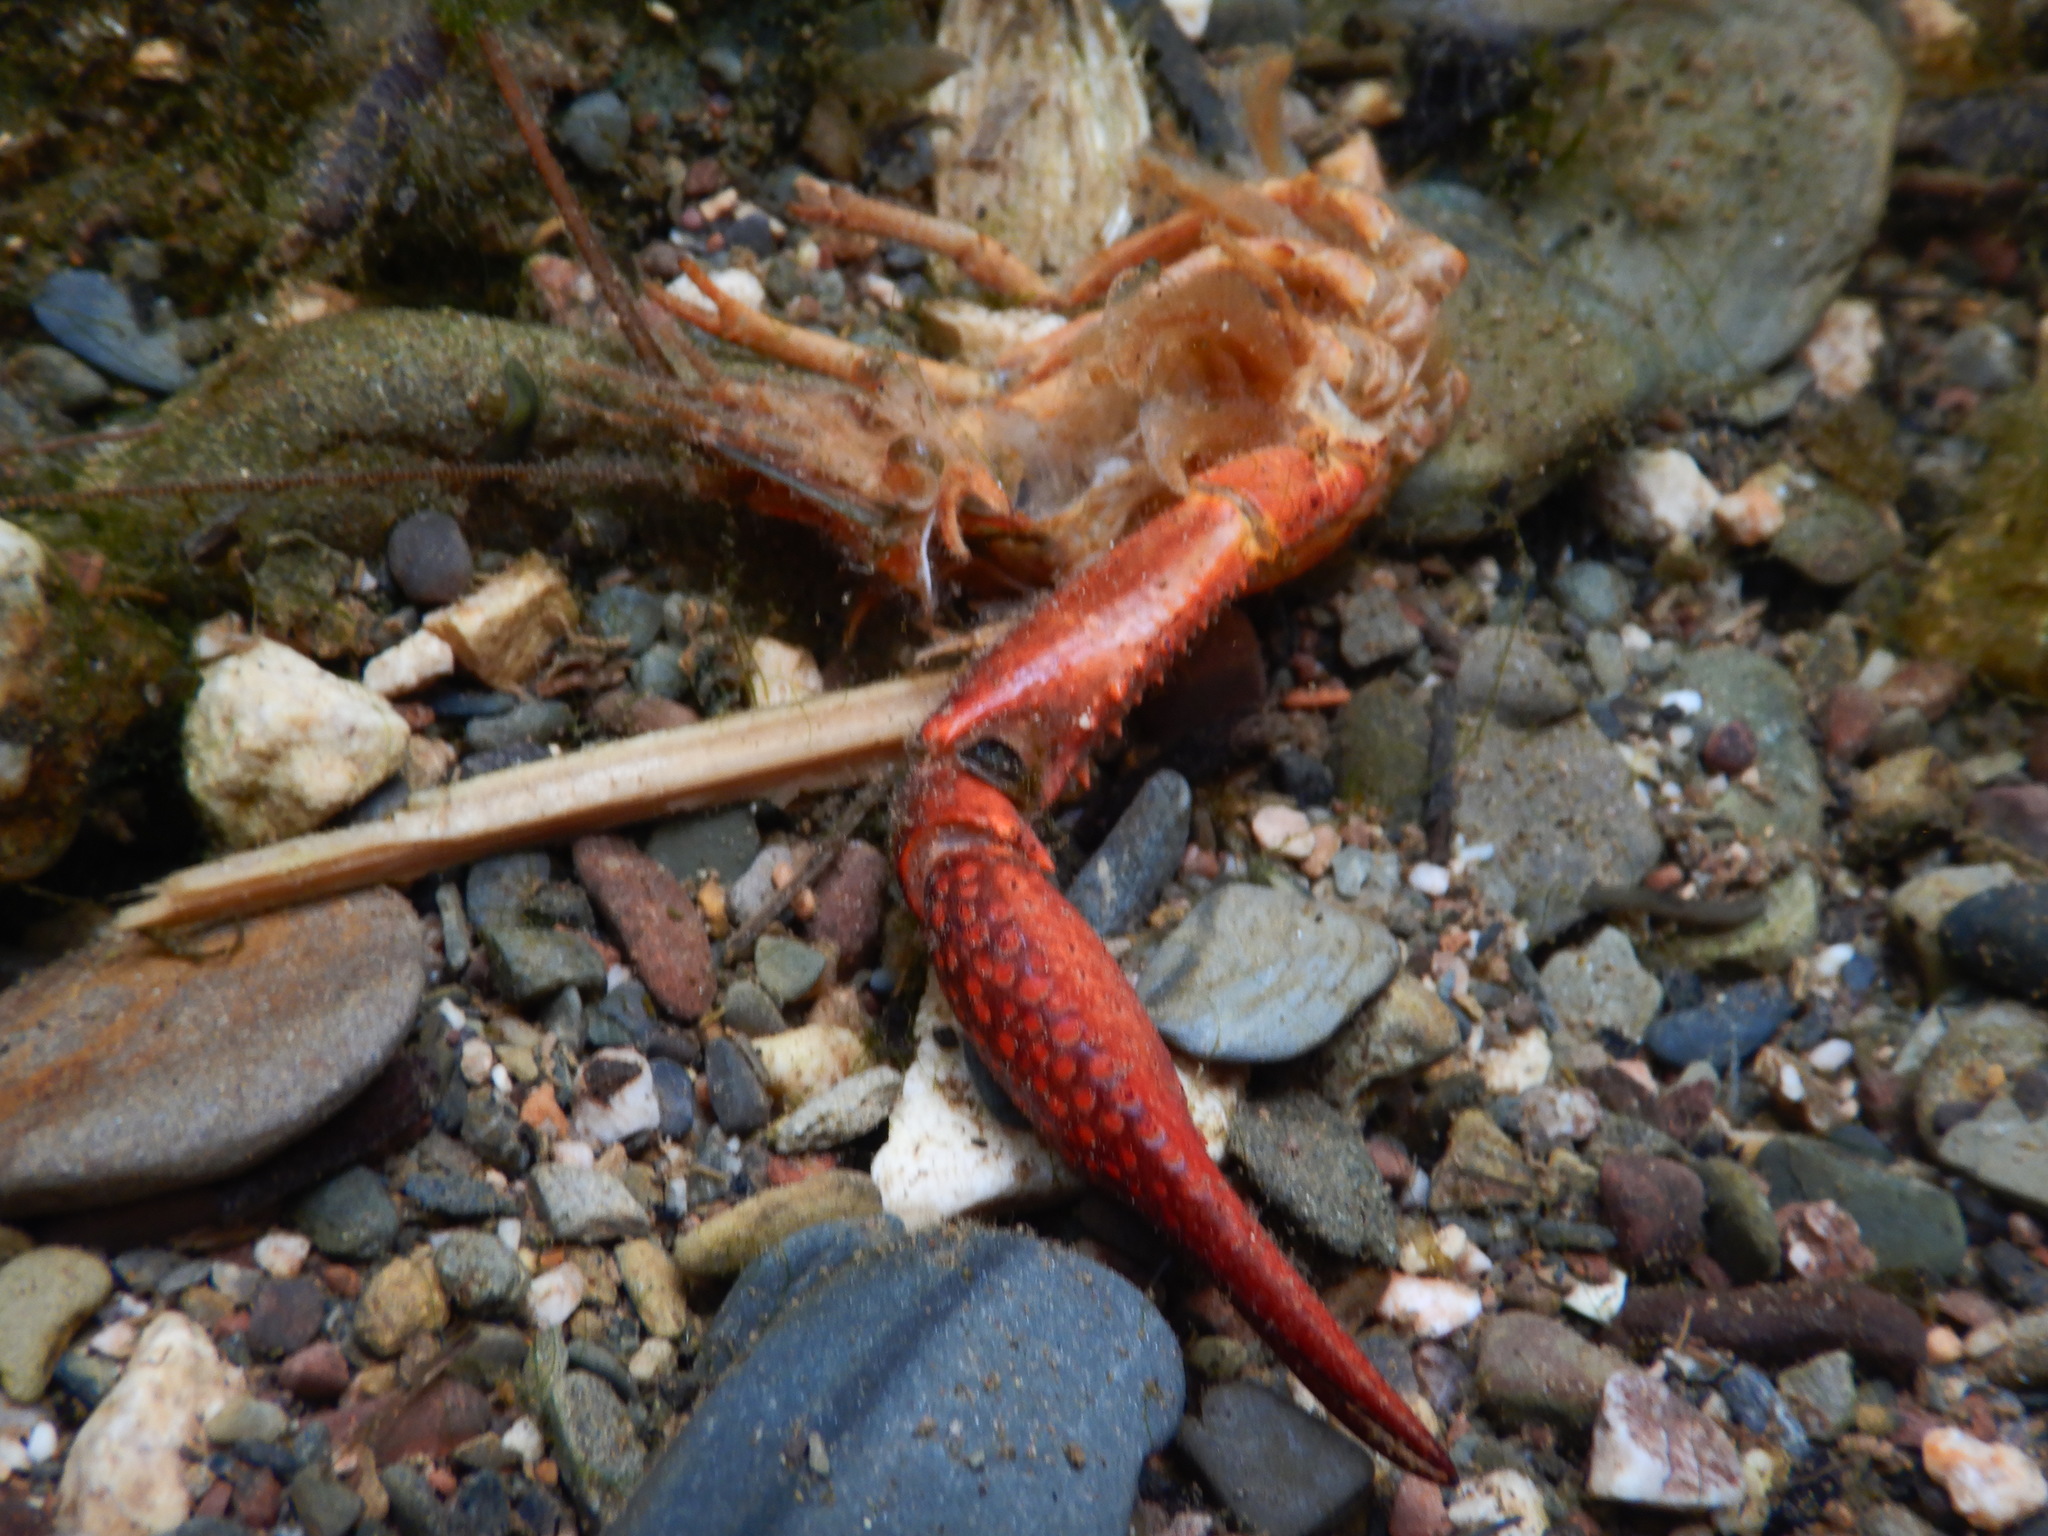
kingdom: Animalia
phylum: Arthropoda
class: Malacostraca
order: Decapoda
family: Cambaridae
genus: Procambarus
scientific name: Procambarus clarkii
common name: Red swamp crayfish
